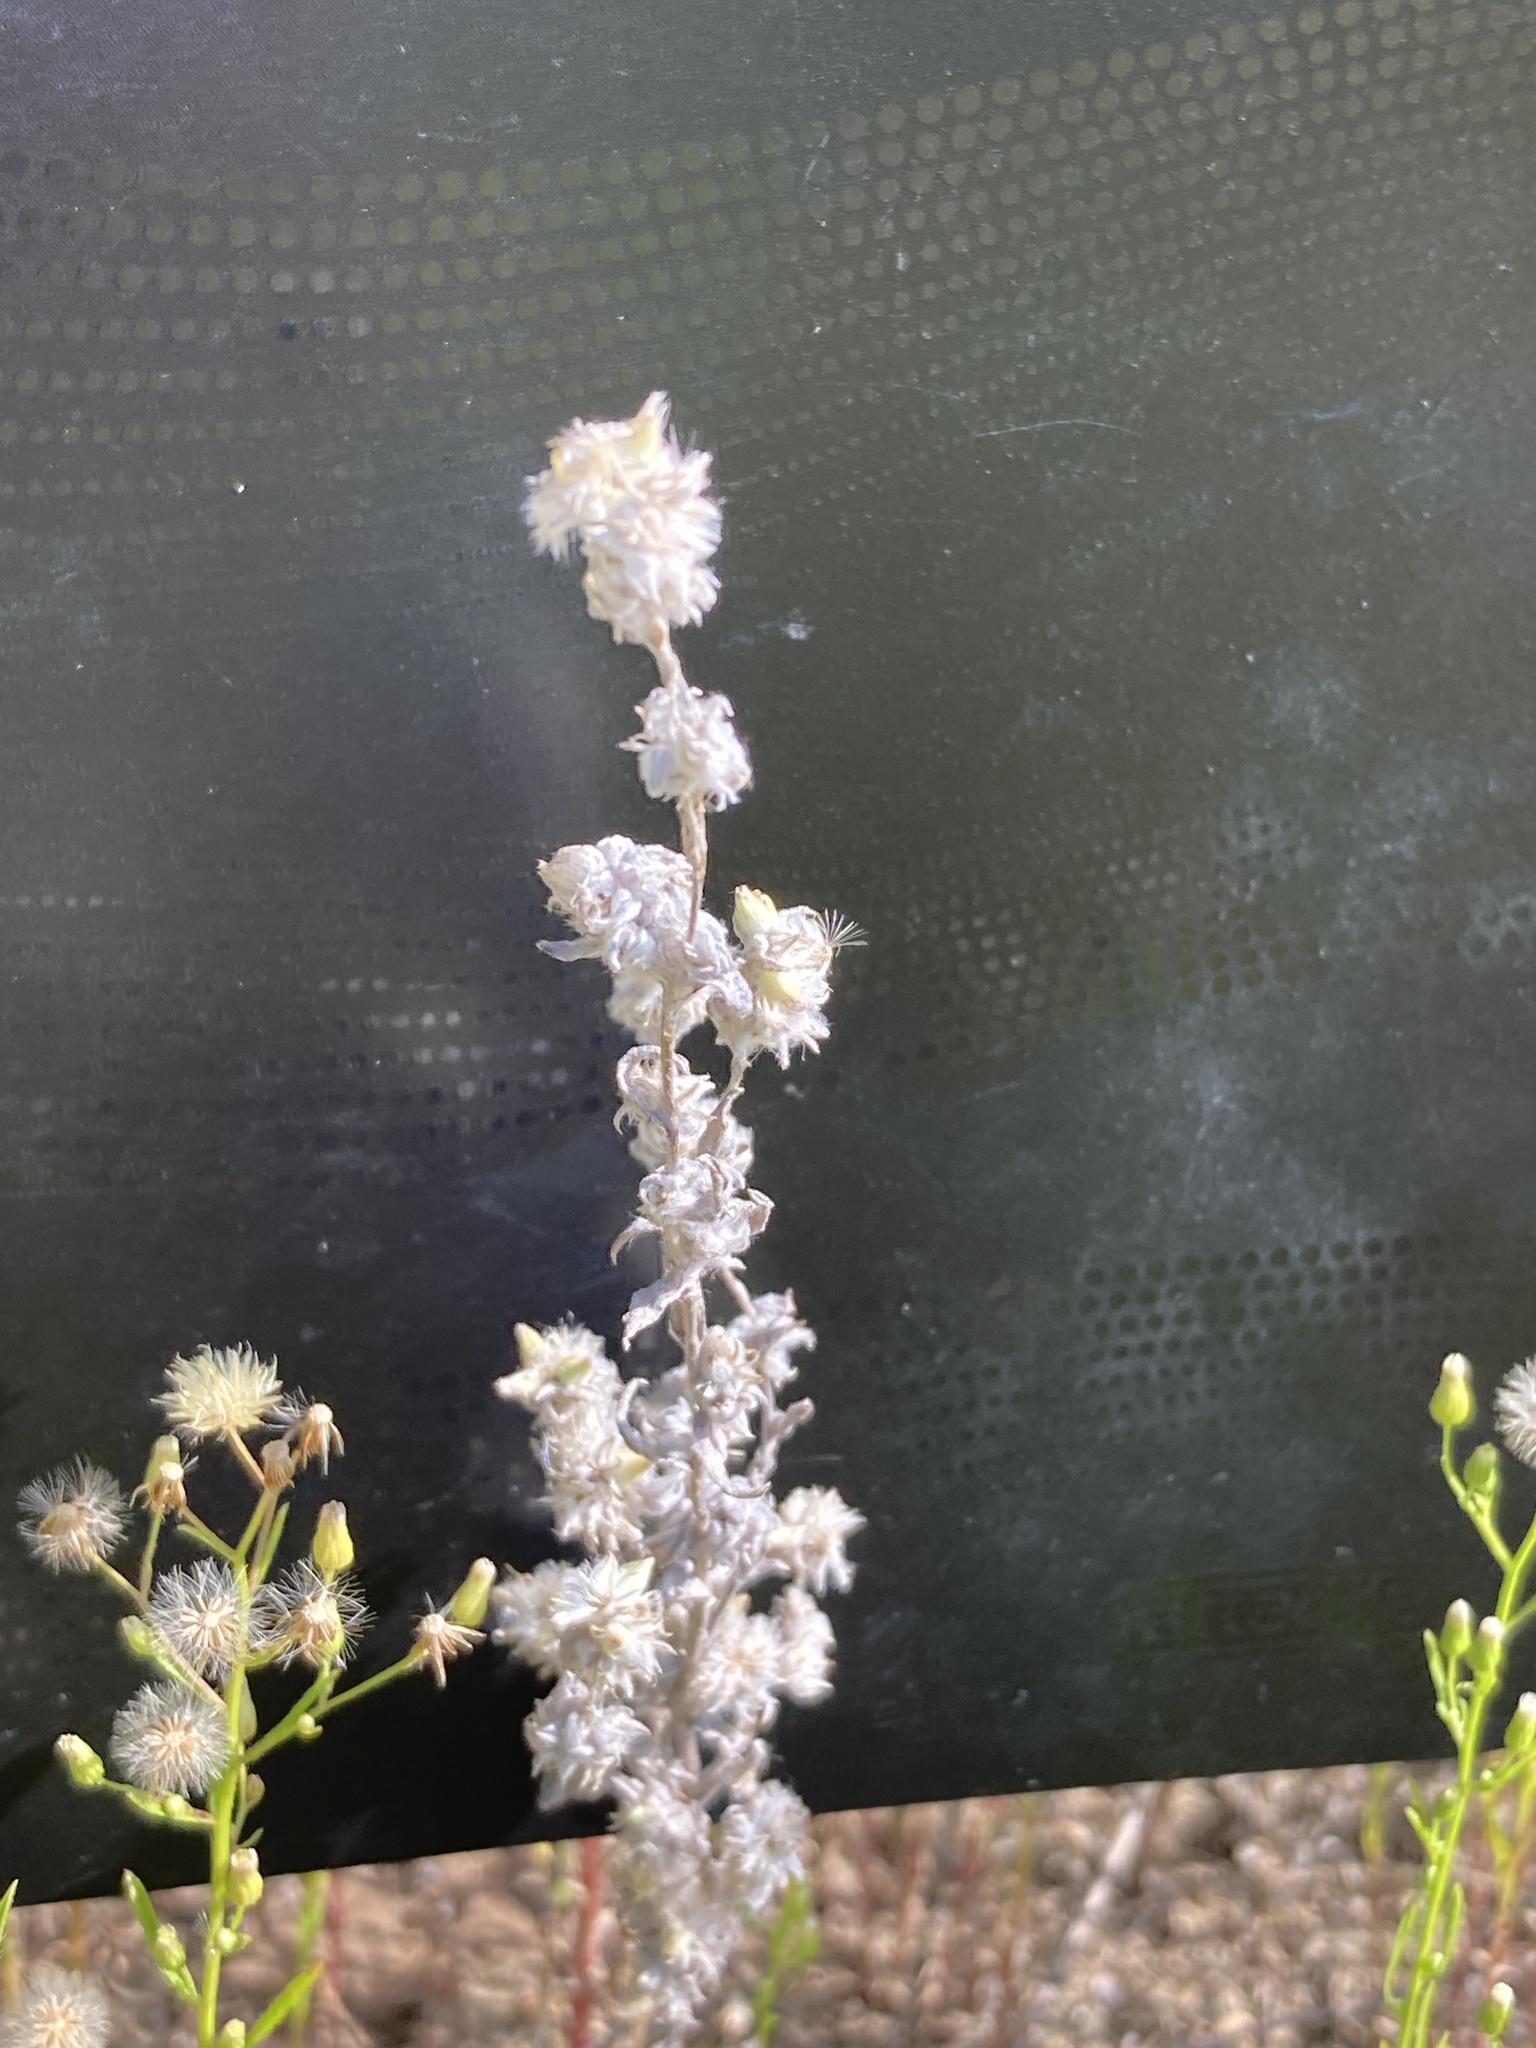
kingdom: Plantae
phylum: Tracheophyta
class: Magnoliopsida
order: Asterales
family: Asteraceae
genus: Filago
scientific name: Filago arvensis
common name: Field cudweed
